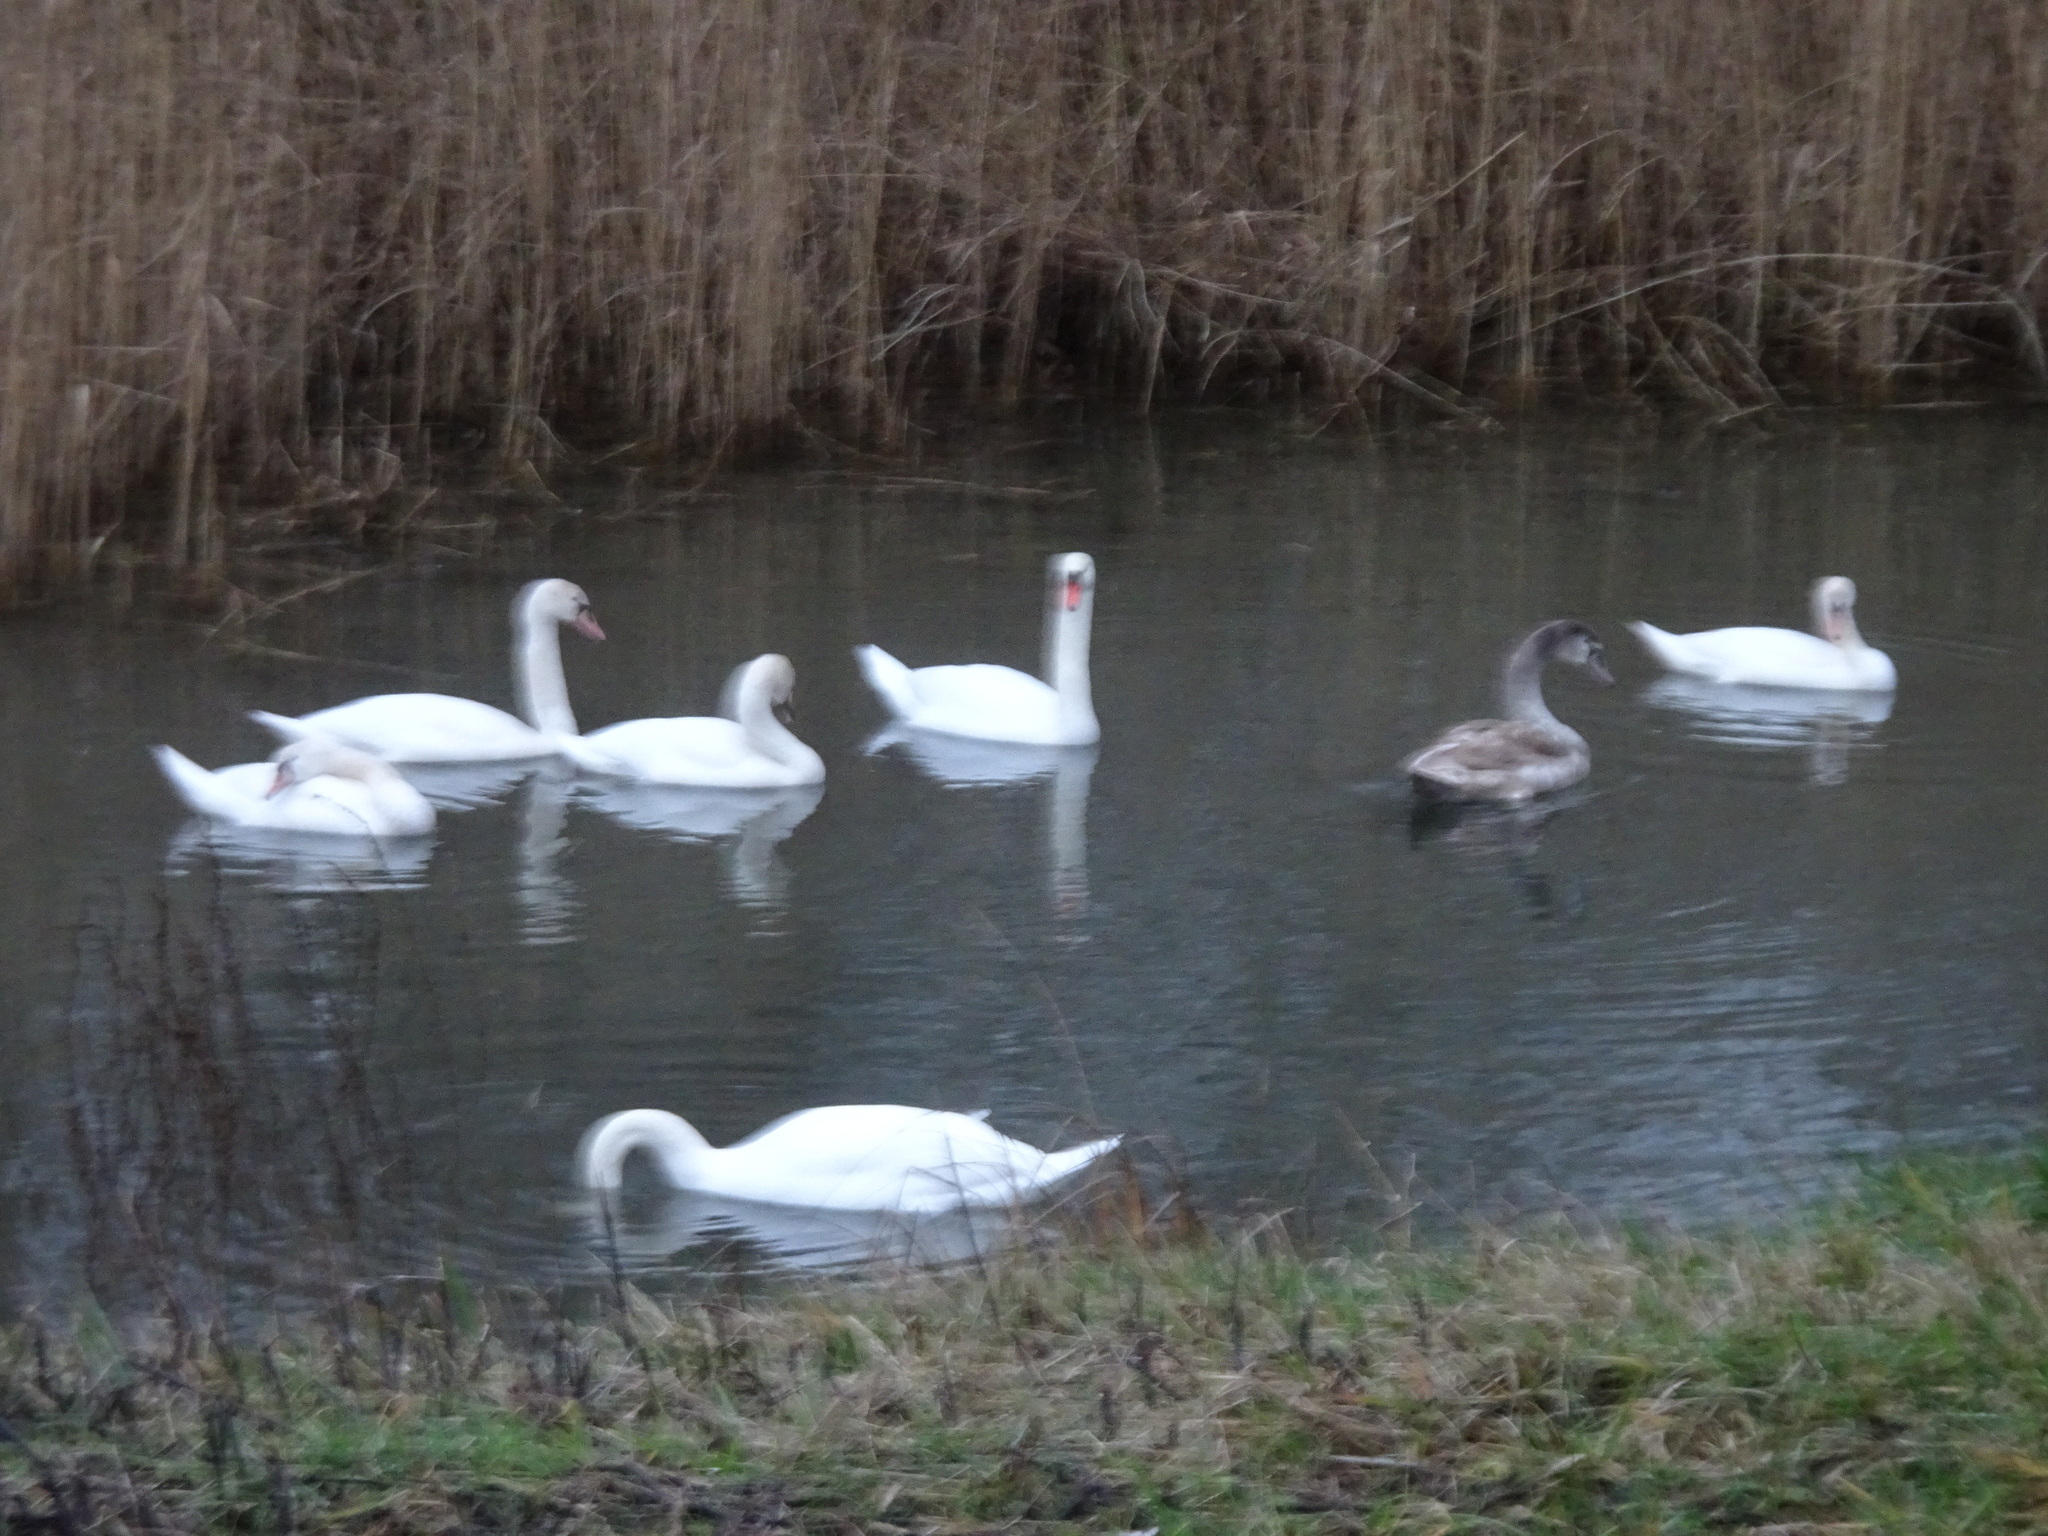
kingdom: Animalia
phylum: Chordata
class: Aves
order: Anseriformes
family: Anatidae
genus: Cygnus
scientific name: Cygnus olor
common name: Mute swan
